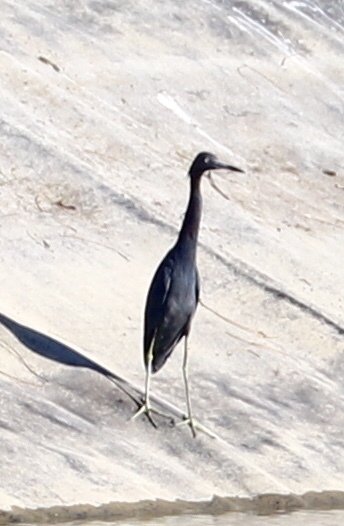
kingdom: Animalia
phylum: Chordata
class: Aves
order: Pelecaniformes
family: Ardeidae
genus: Egretta
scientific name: Egretta caerulea
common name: Little blue heron
